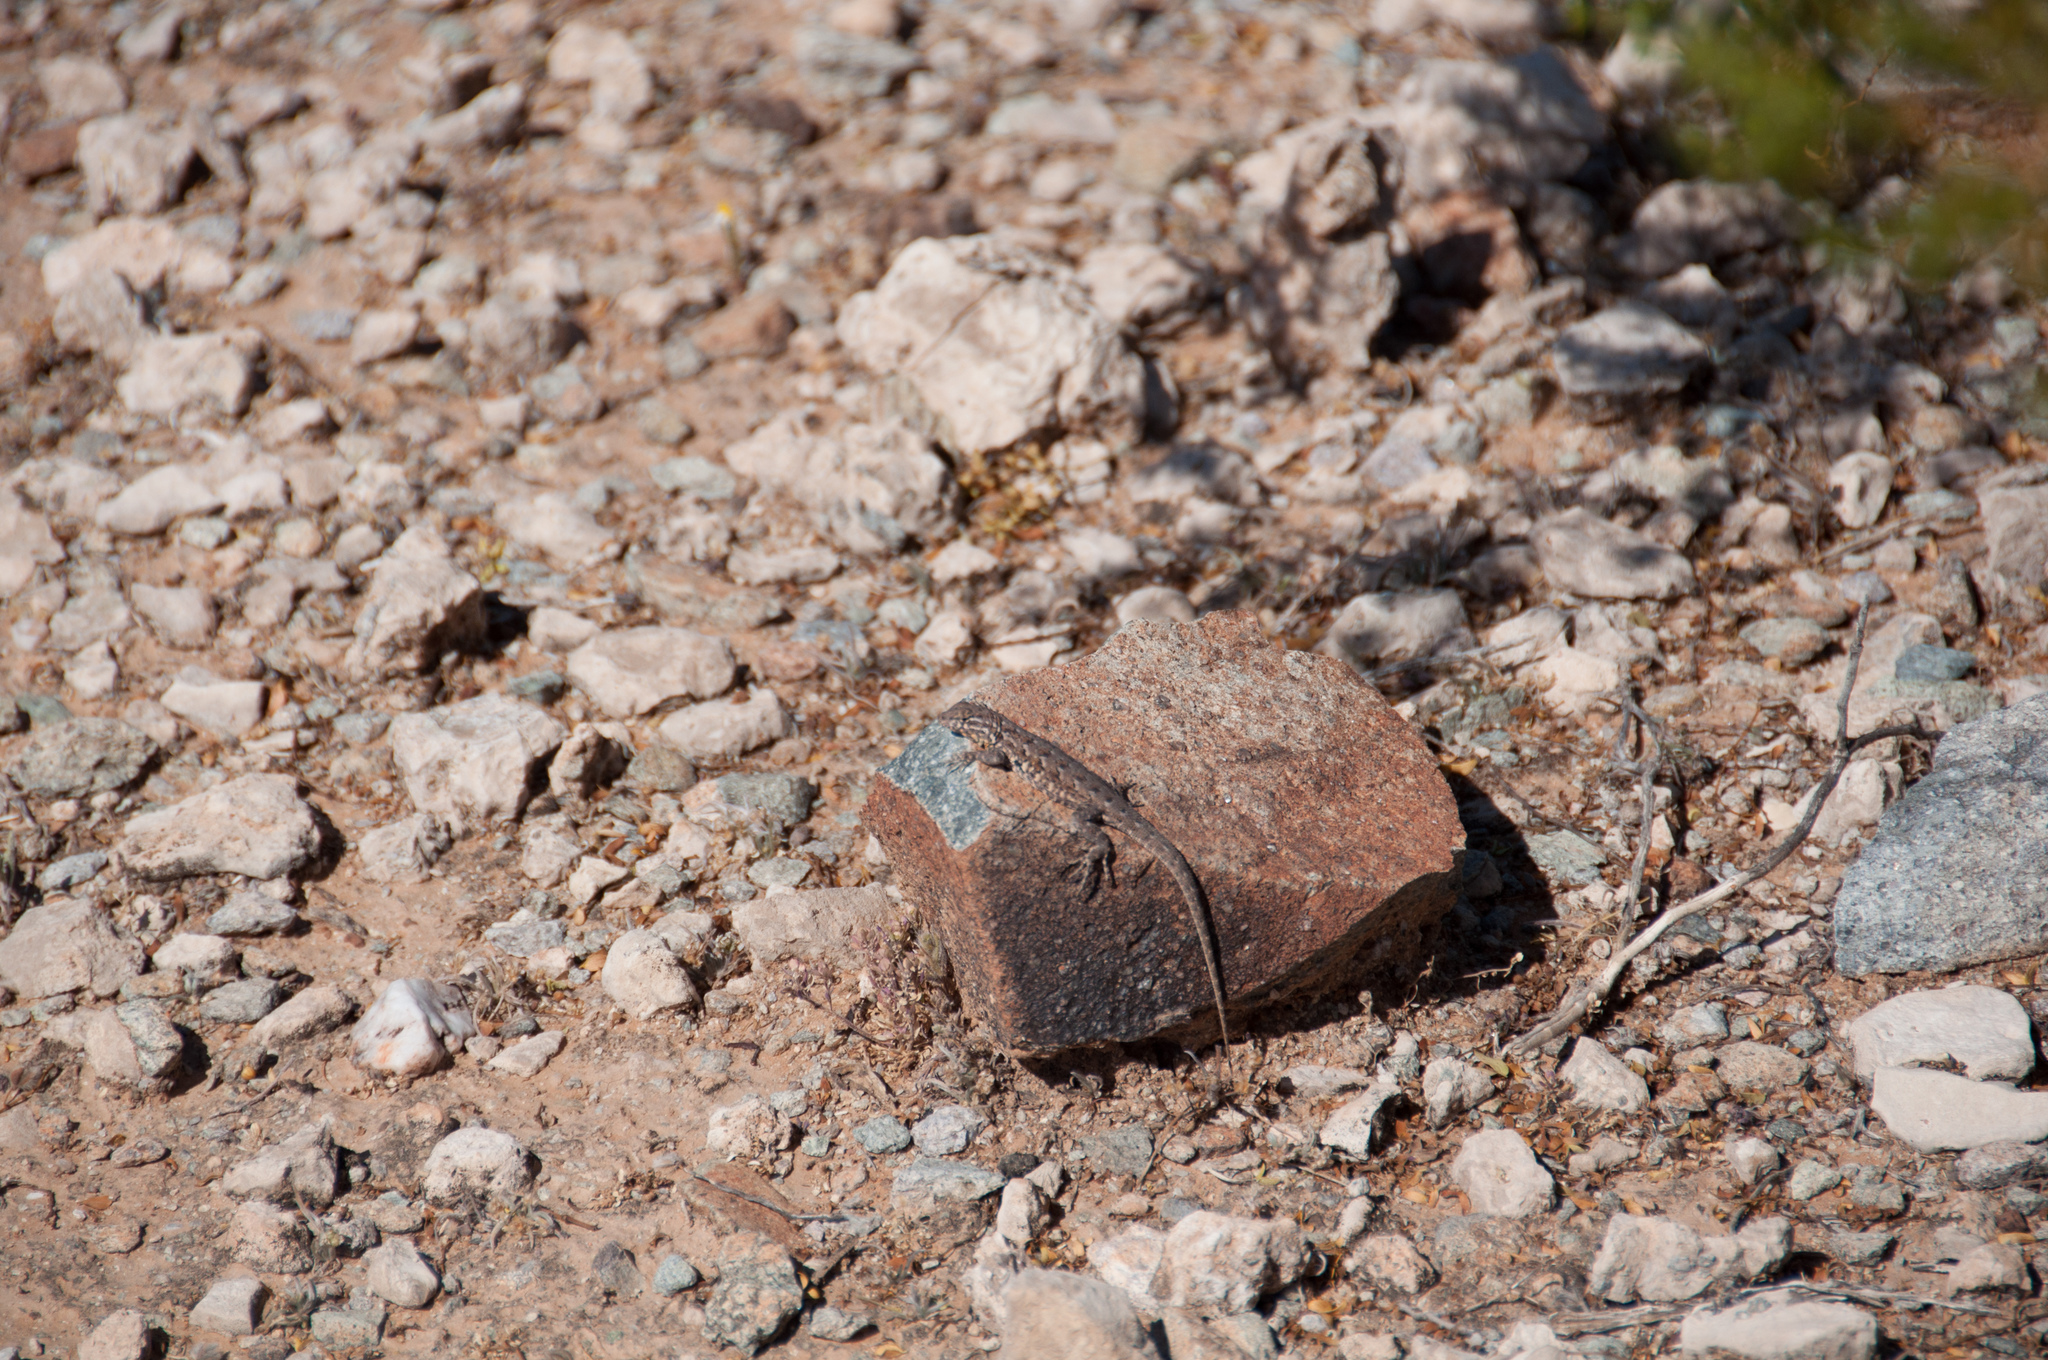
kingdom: Animalia
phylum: Chordata
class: Squamata
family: Phrynosomatidae
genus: Uta
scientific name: Uta stansburiana
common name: Side-blotched lizard
